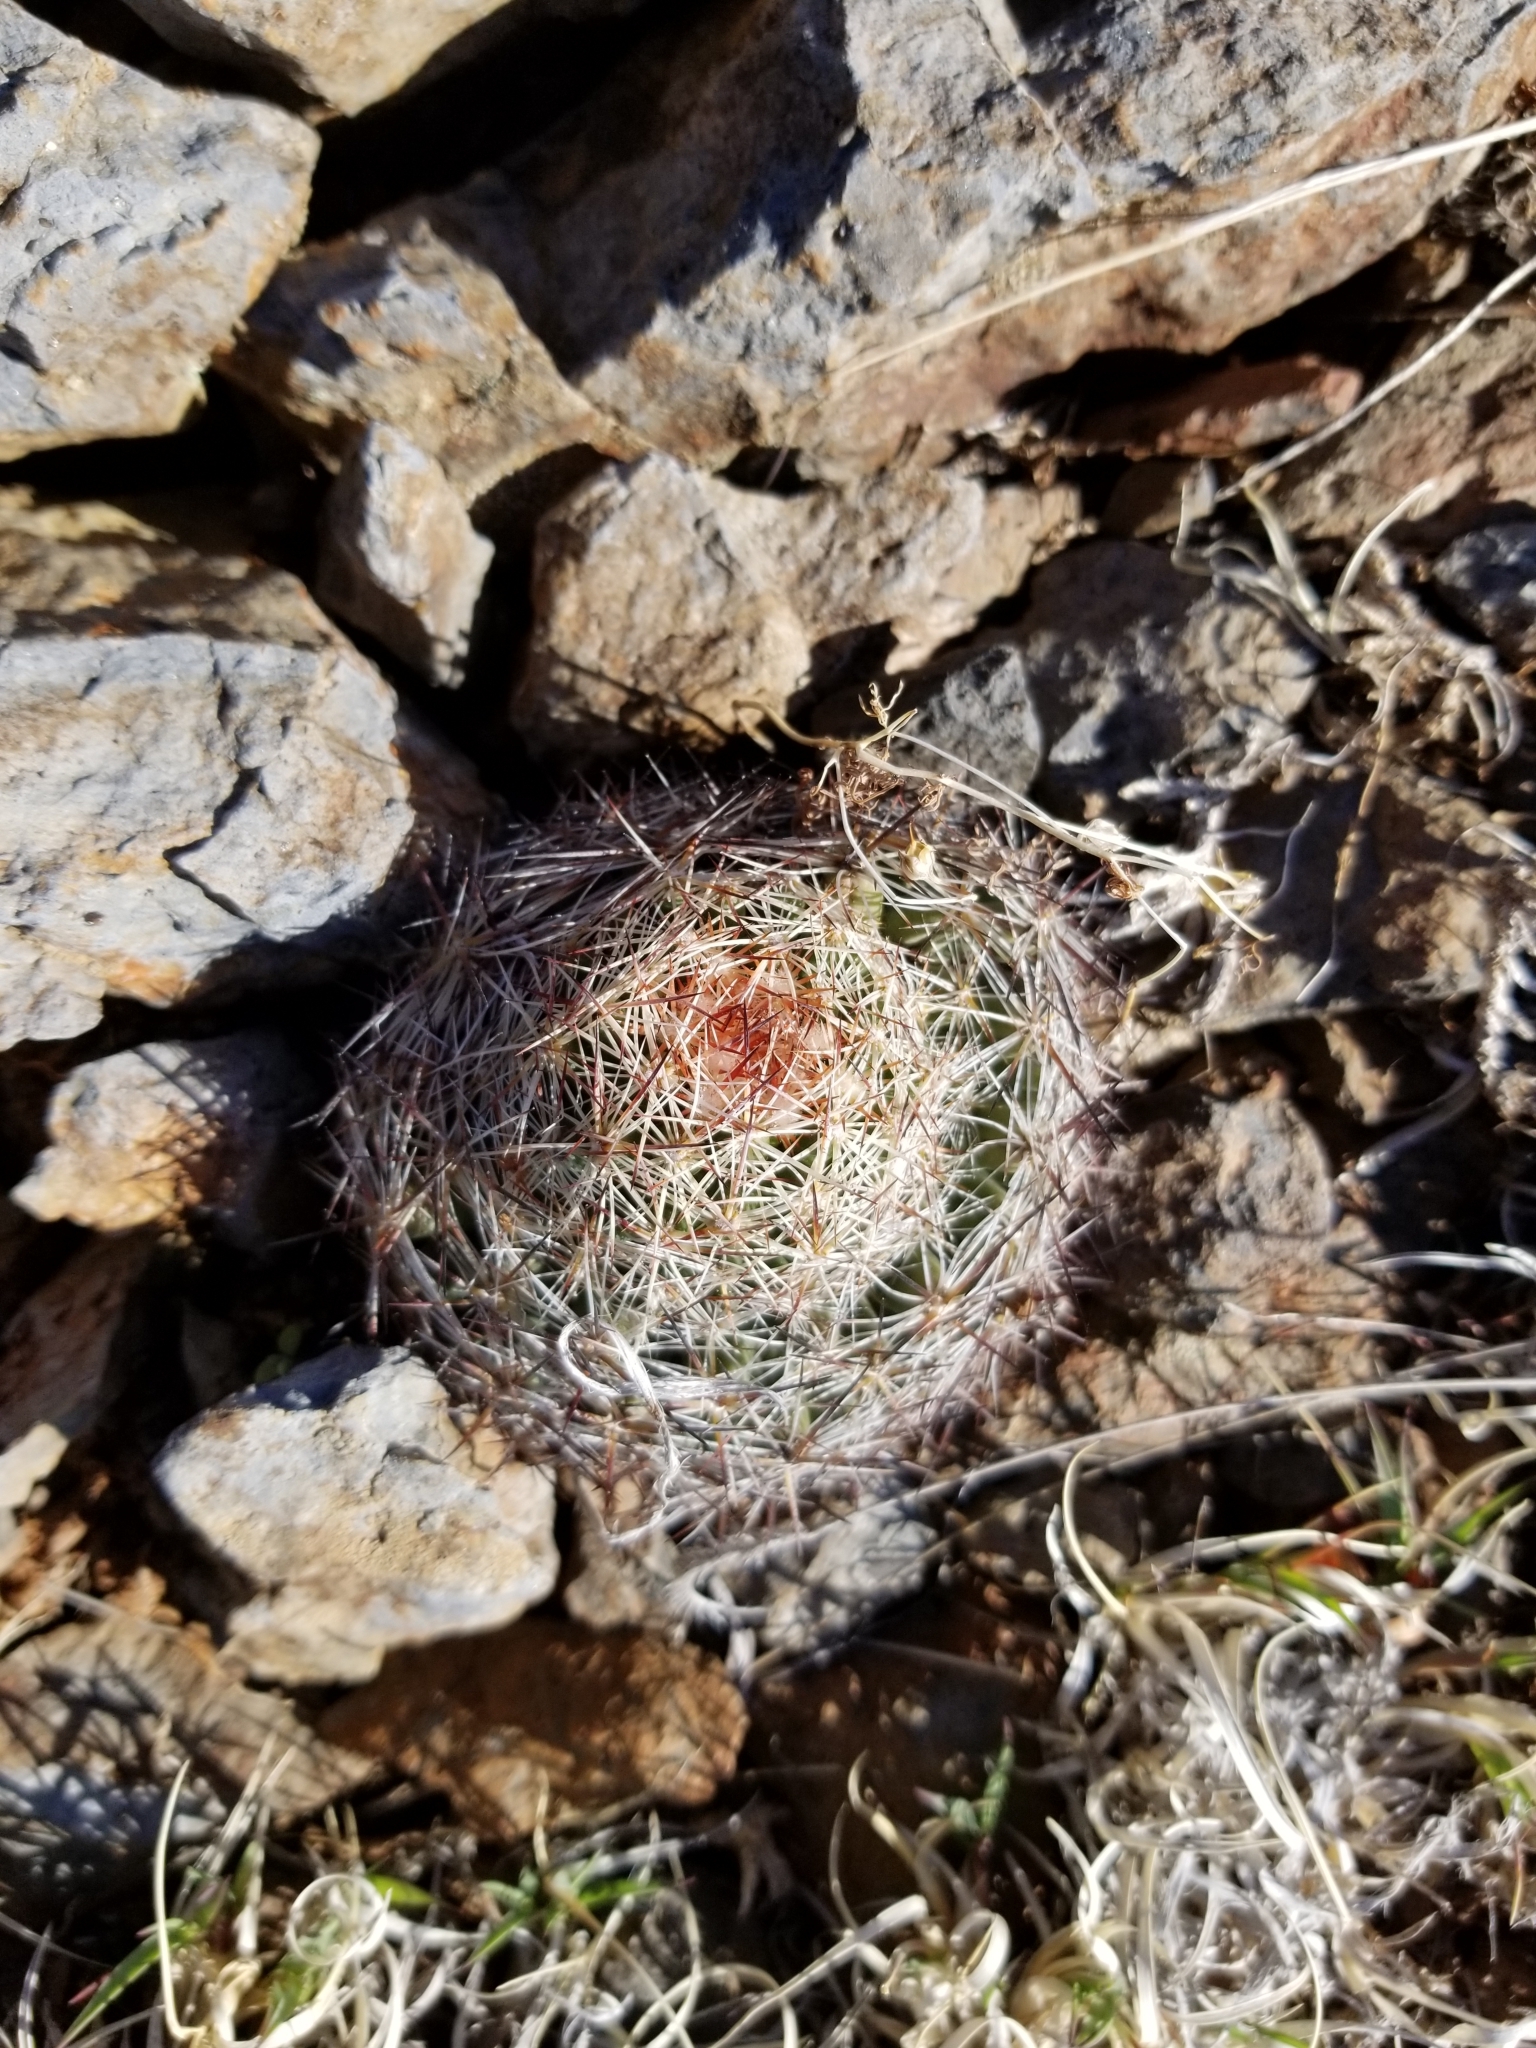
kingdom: Plantae
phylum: Tracheophyta
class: Magnoliopsida
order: Caryophyllales
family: Cactaceae
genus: Pelecyphora
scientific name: Pelecyphora vivipara
